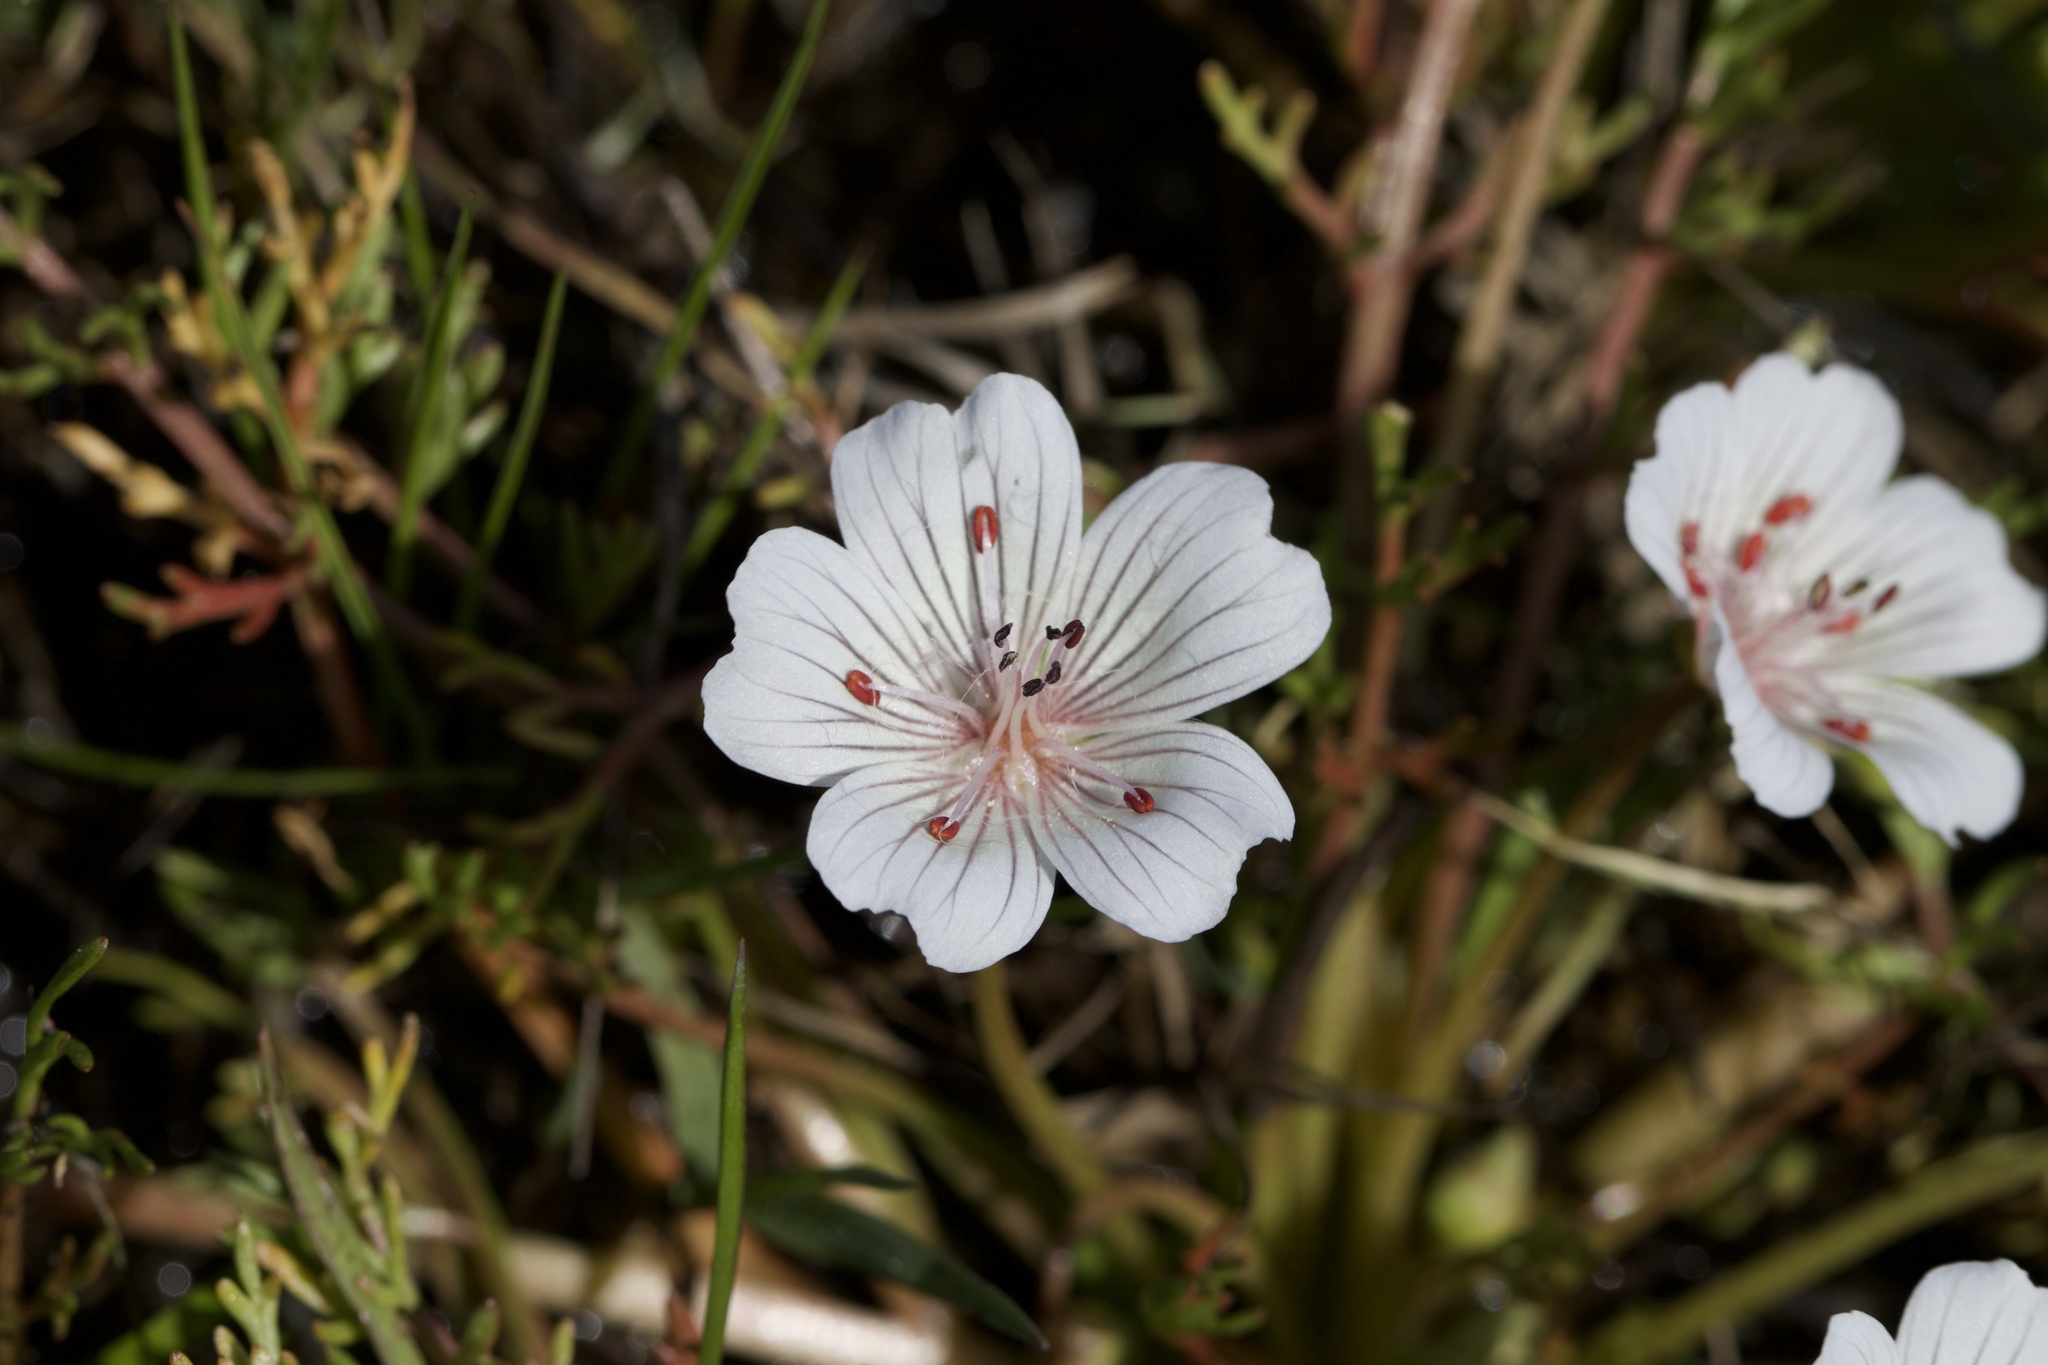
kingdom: Plantae
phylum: Tracheophyta
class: Magnoliopsida
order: Brassicales
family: Limnanthaceae
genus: Limnanthes
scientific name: Limnanthes douglasii
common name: Meadow-foam
